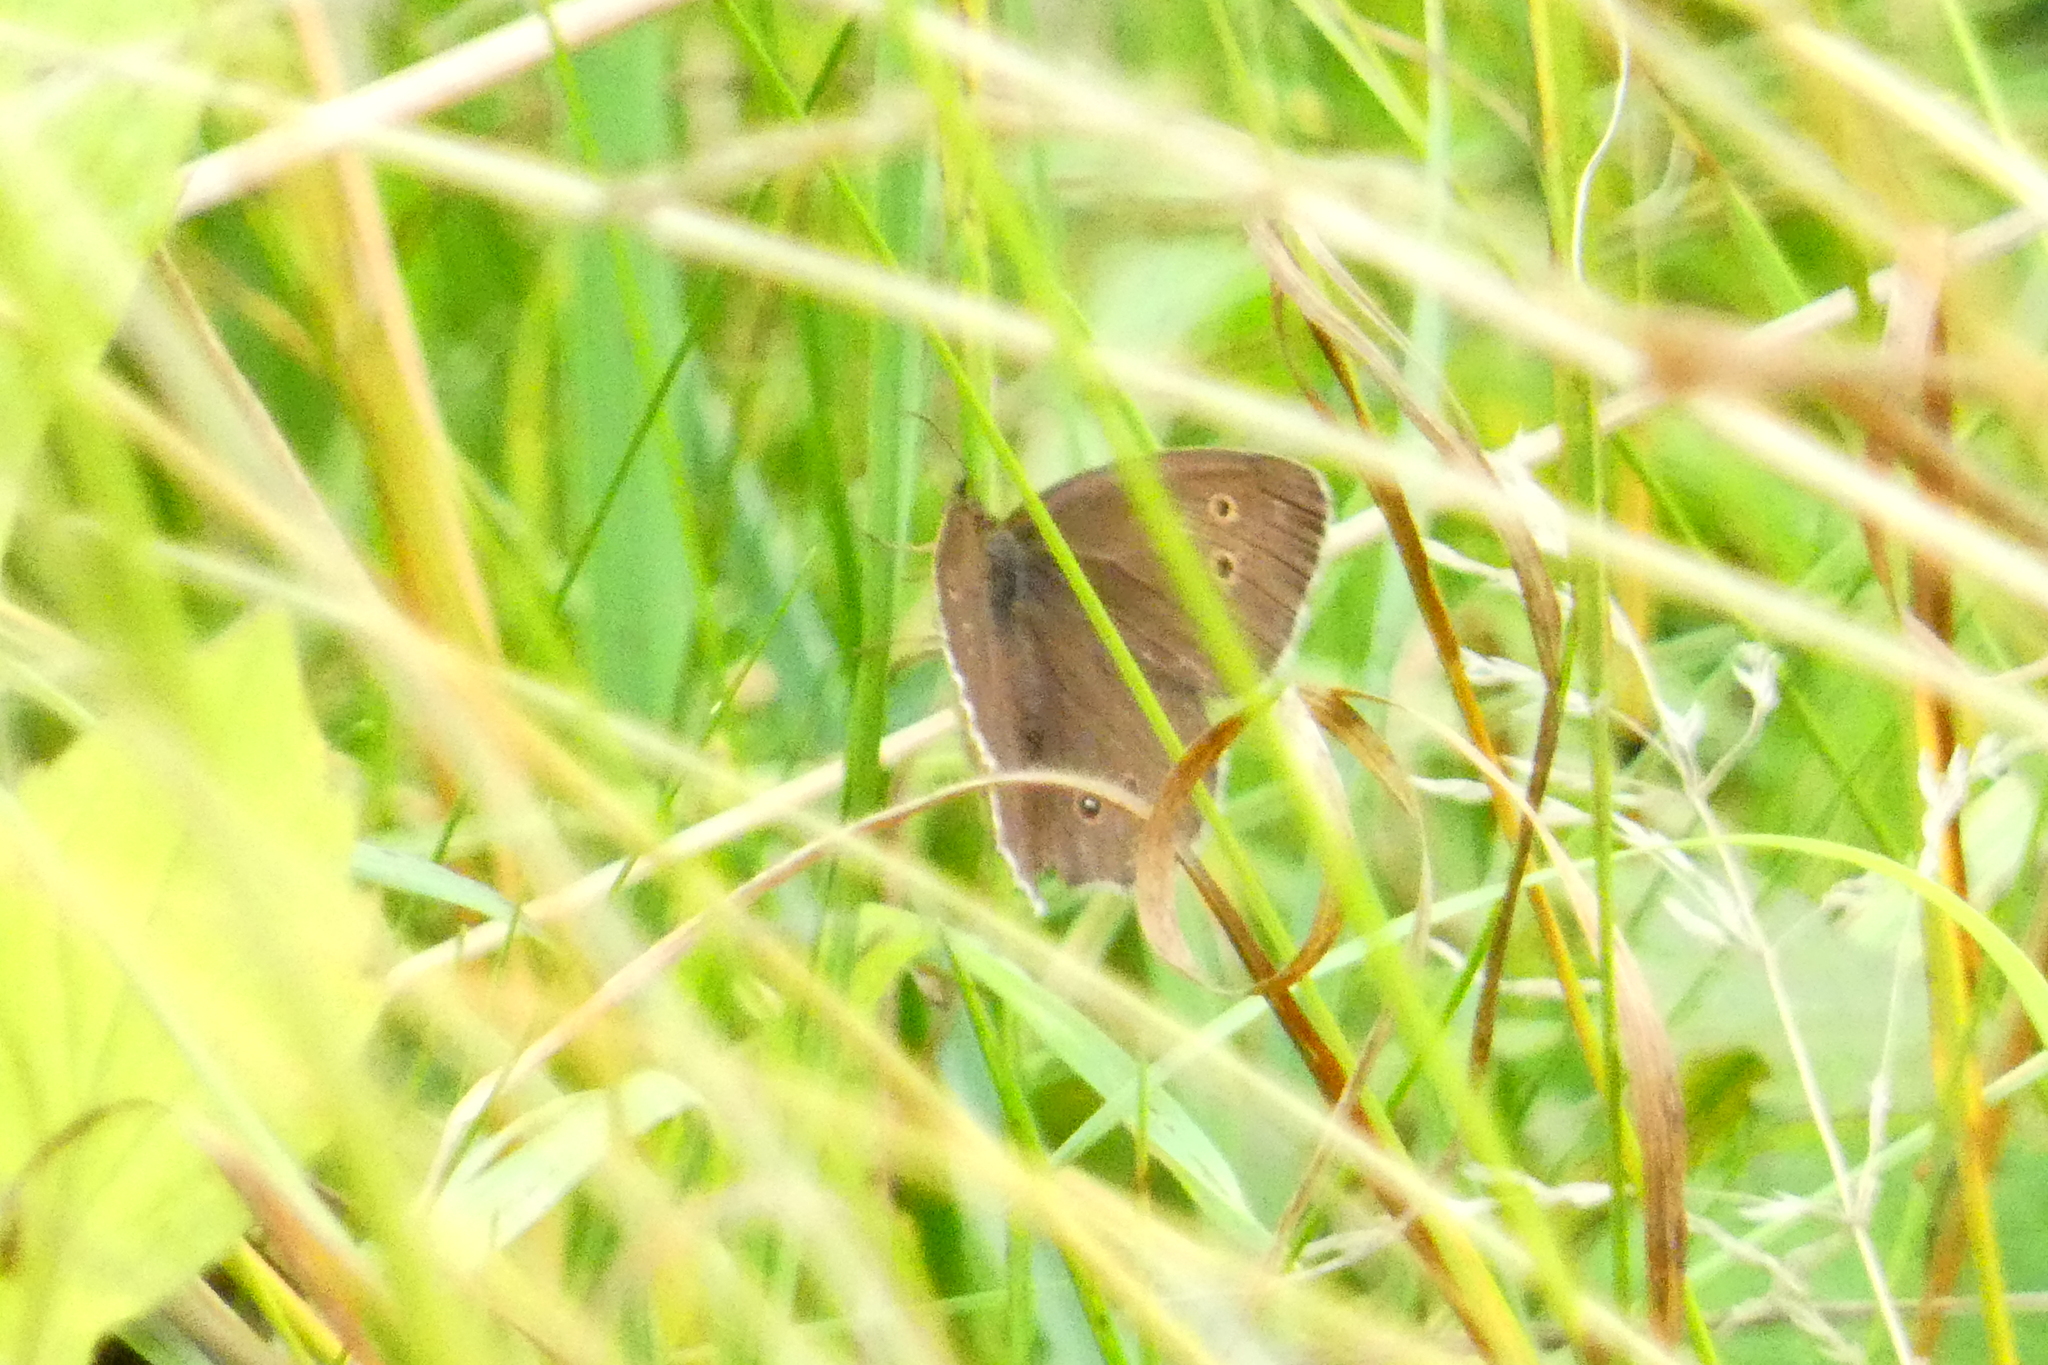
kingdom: Animalia
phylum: Arthropoda
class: Insecta
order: Lepidoptera
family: Nymphalidae
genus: Aphantopus
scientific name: Aphantopus hyperantus
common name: Ringlet
